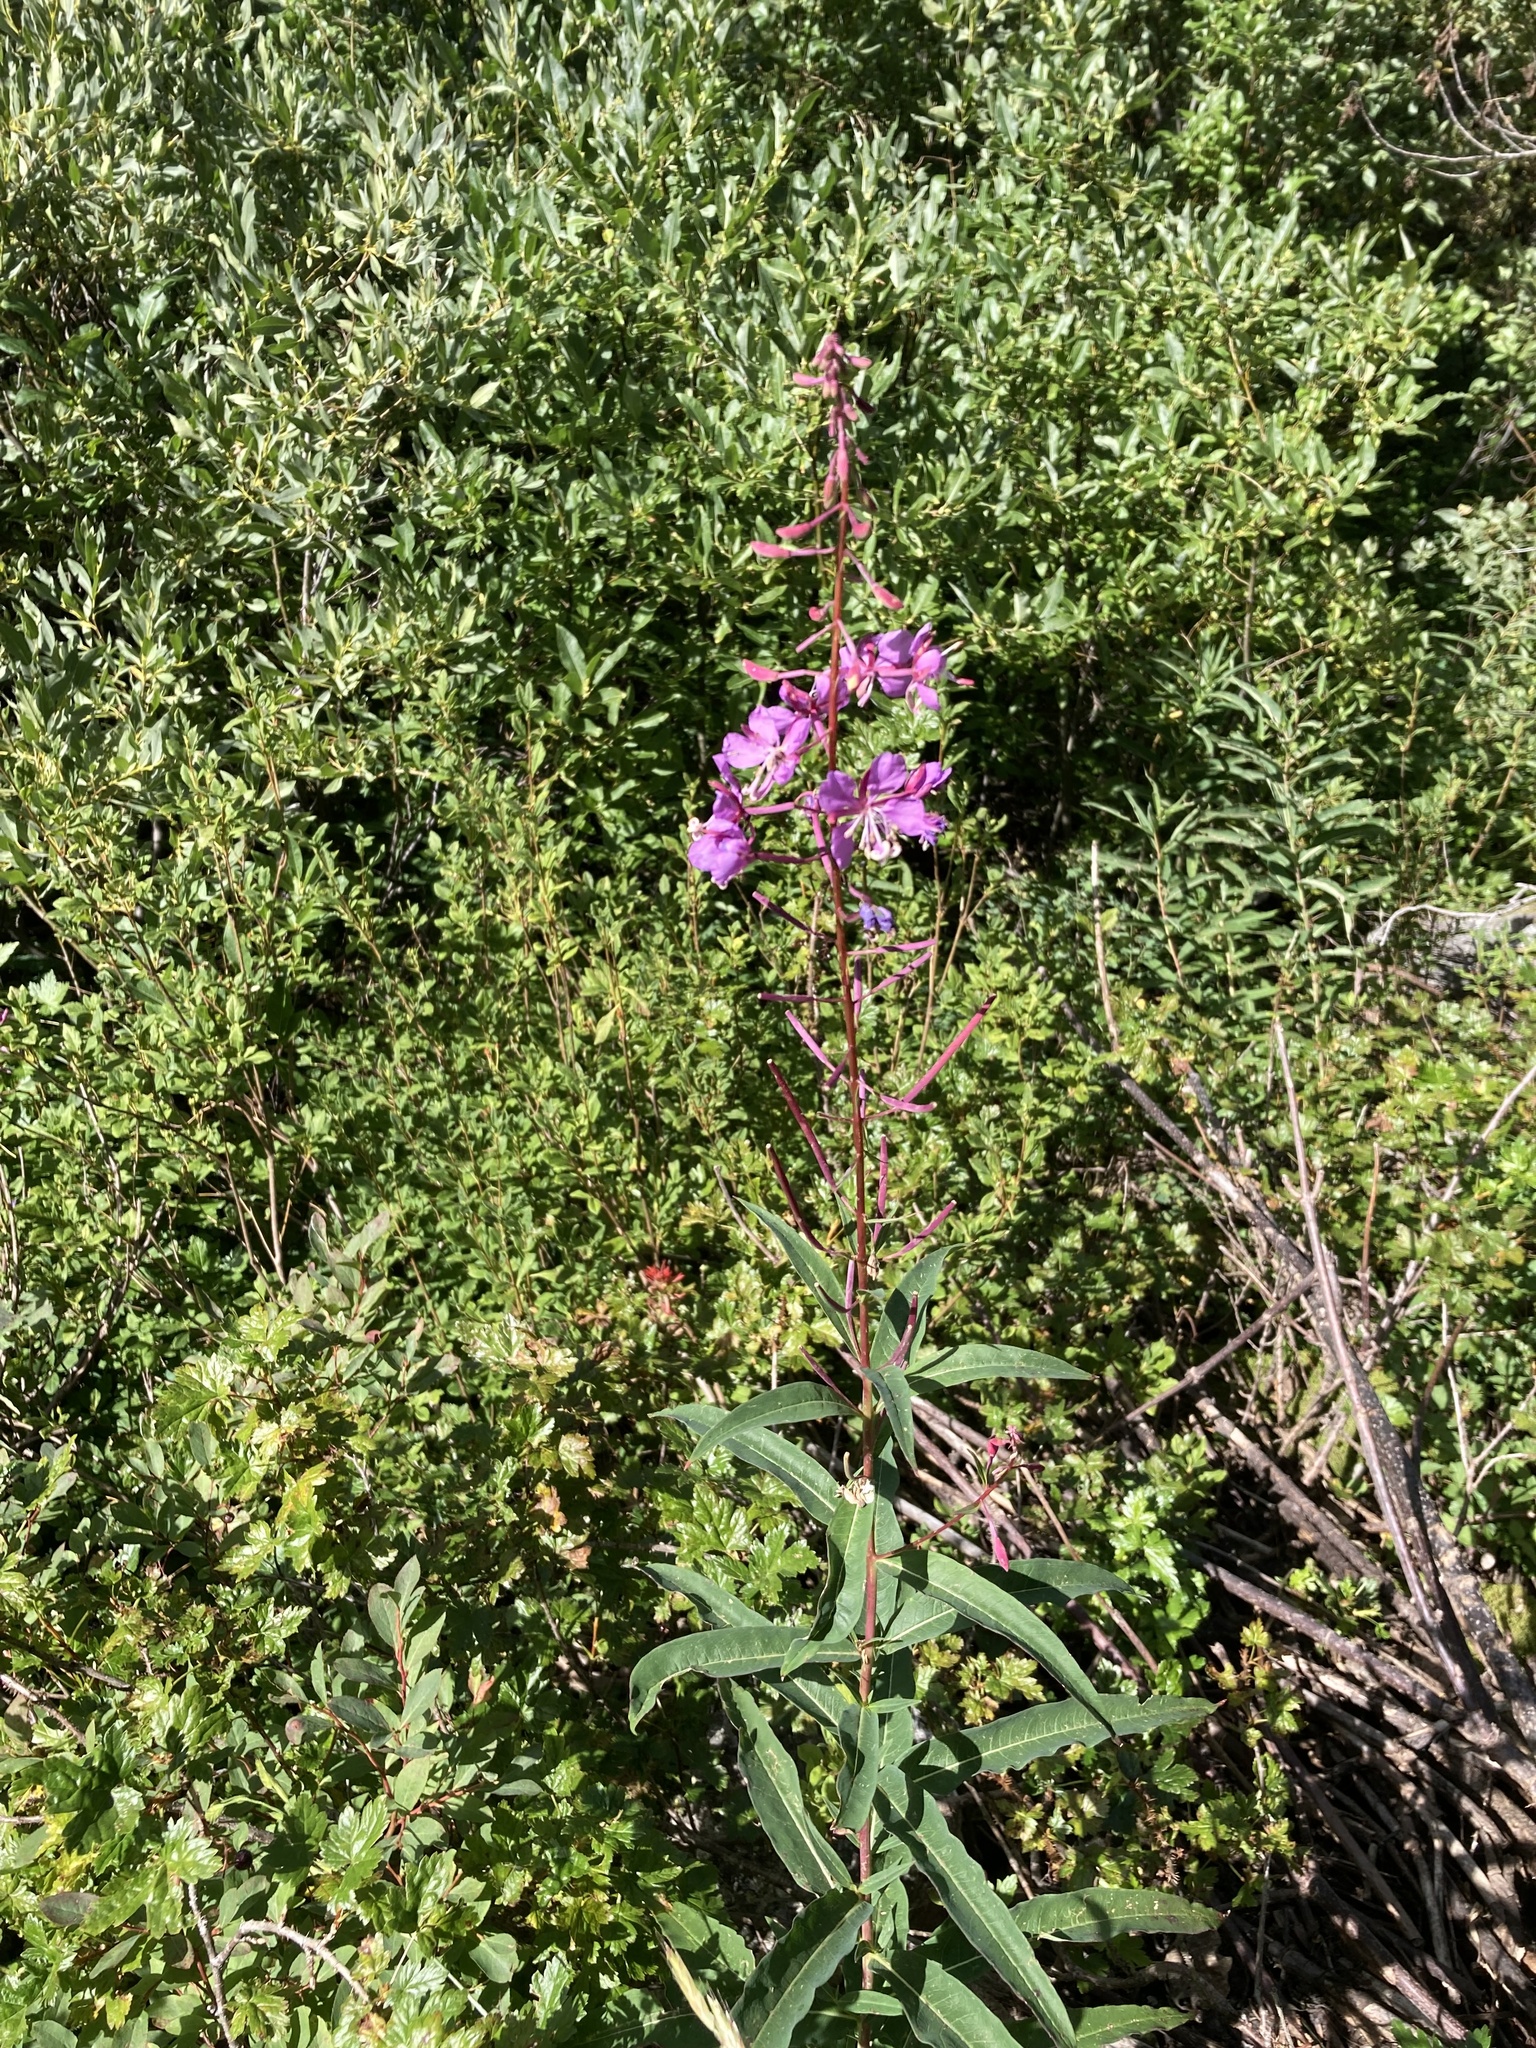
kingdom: Plantae
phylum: Tracheophyta
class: Magnoliopsida
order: Myrtales
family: Onagraceae
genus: Chamaenerion
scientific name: Chamaenerion angustifolium
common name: Fireweed
